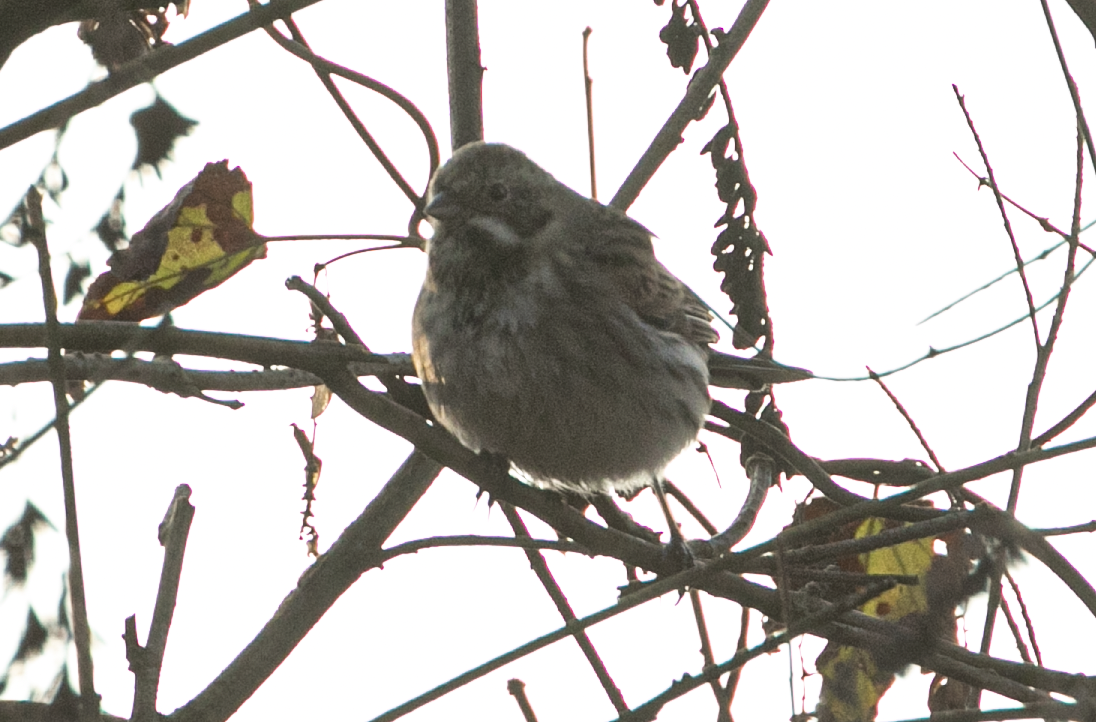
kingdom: Animalia
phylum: Chordata
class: Aves
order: Passeriformes
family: Emberizidae
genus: Emberiza
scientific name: Emberiza schoeniclus
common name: Reed bunting
